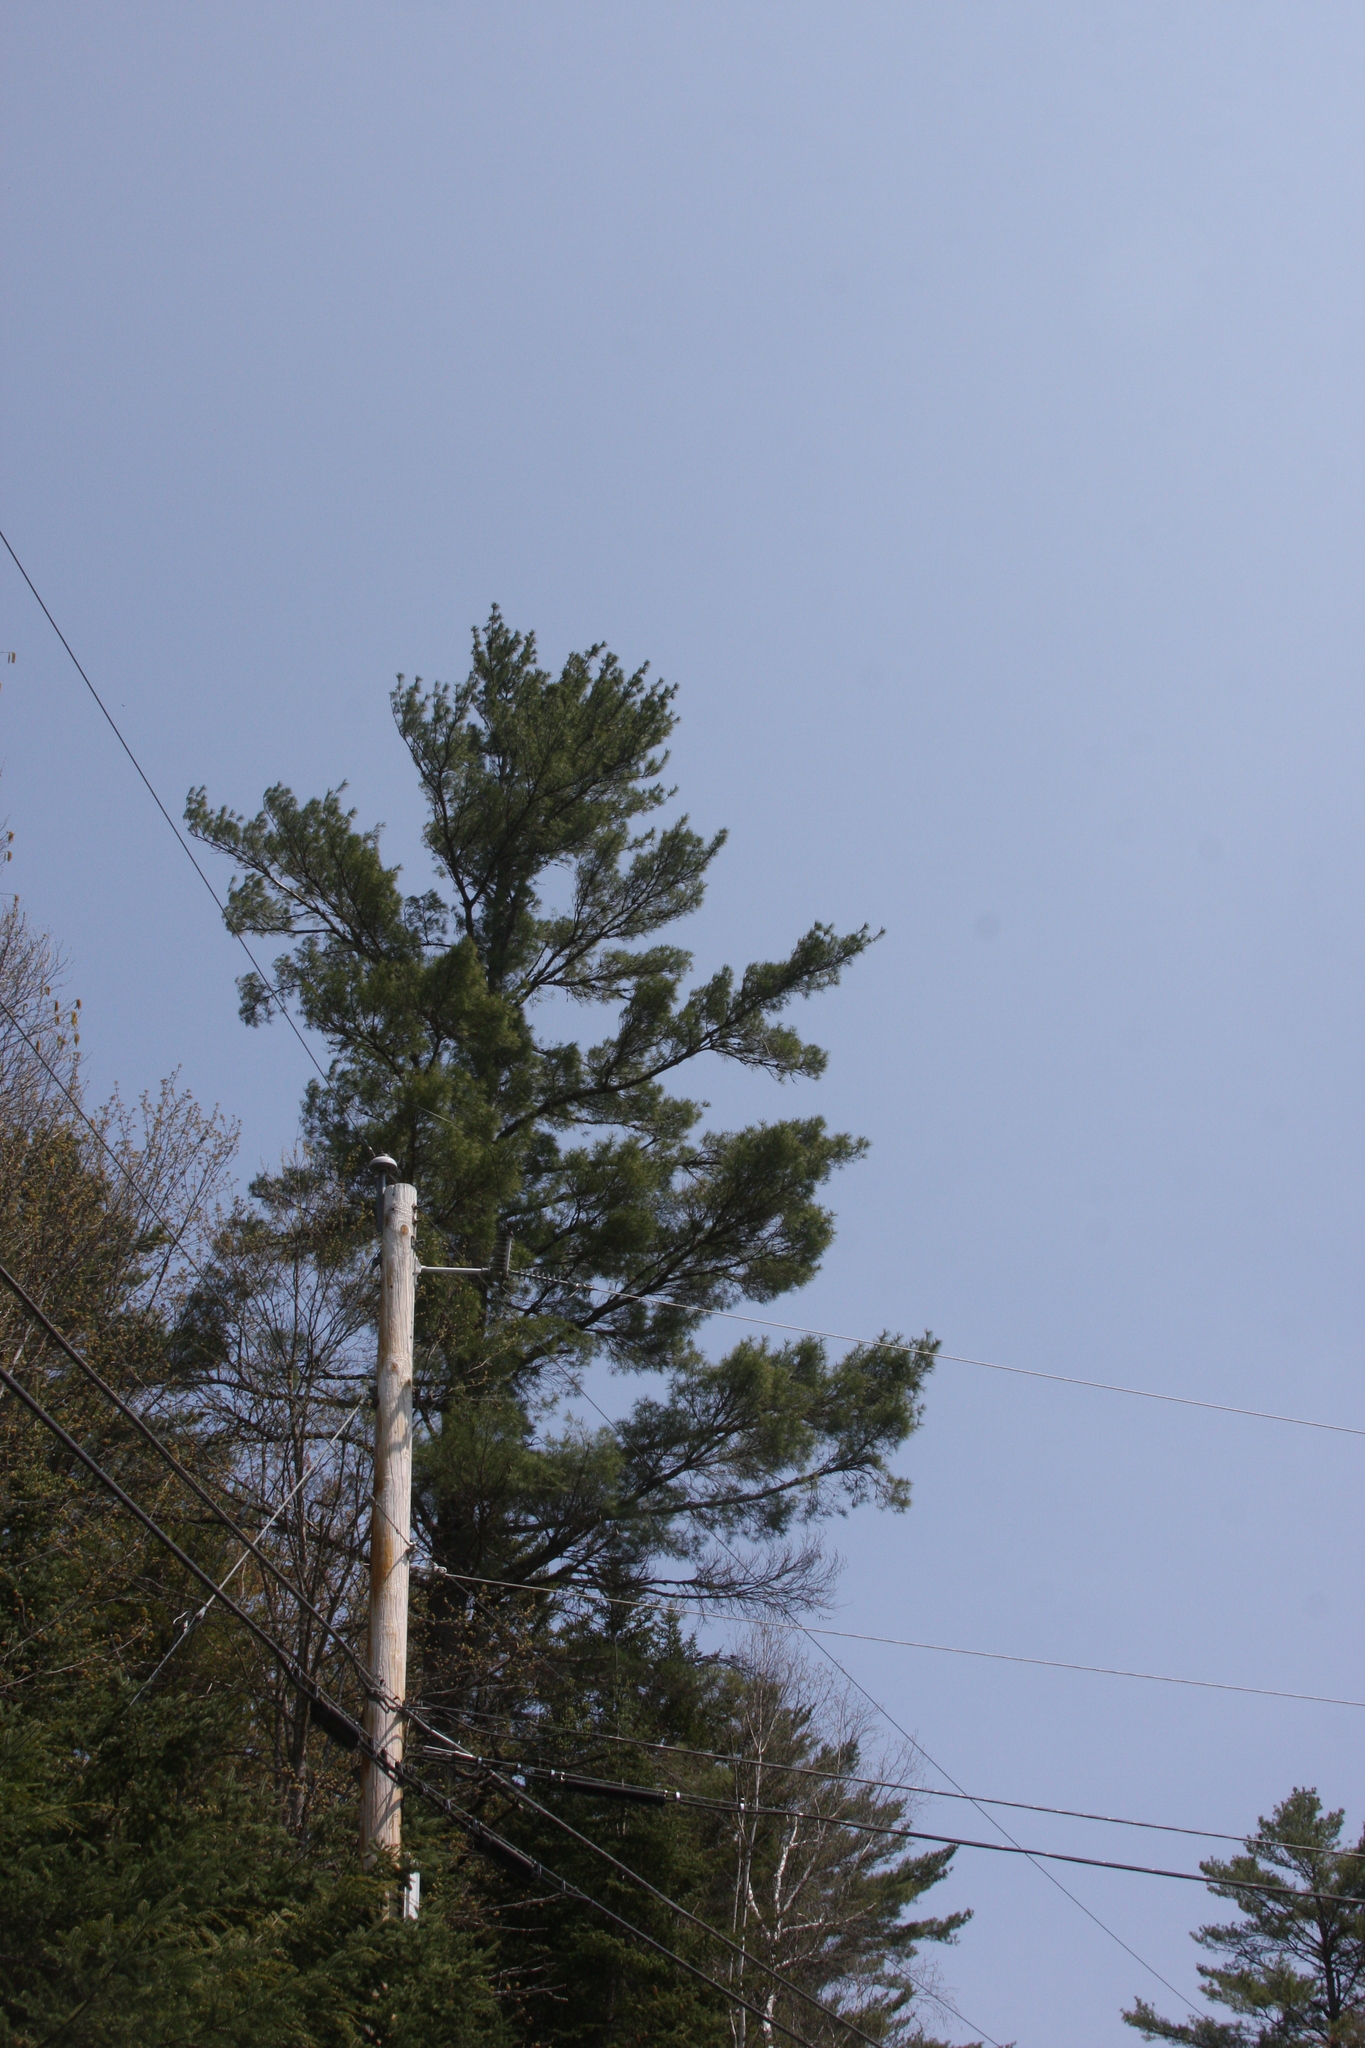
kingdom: Plantae
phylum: Tracheophyta
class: Pinopsida
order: Pinales
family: Pinaceae
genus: Pinus
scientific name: Pinus strobus
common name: Weymouth pine
